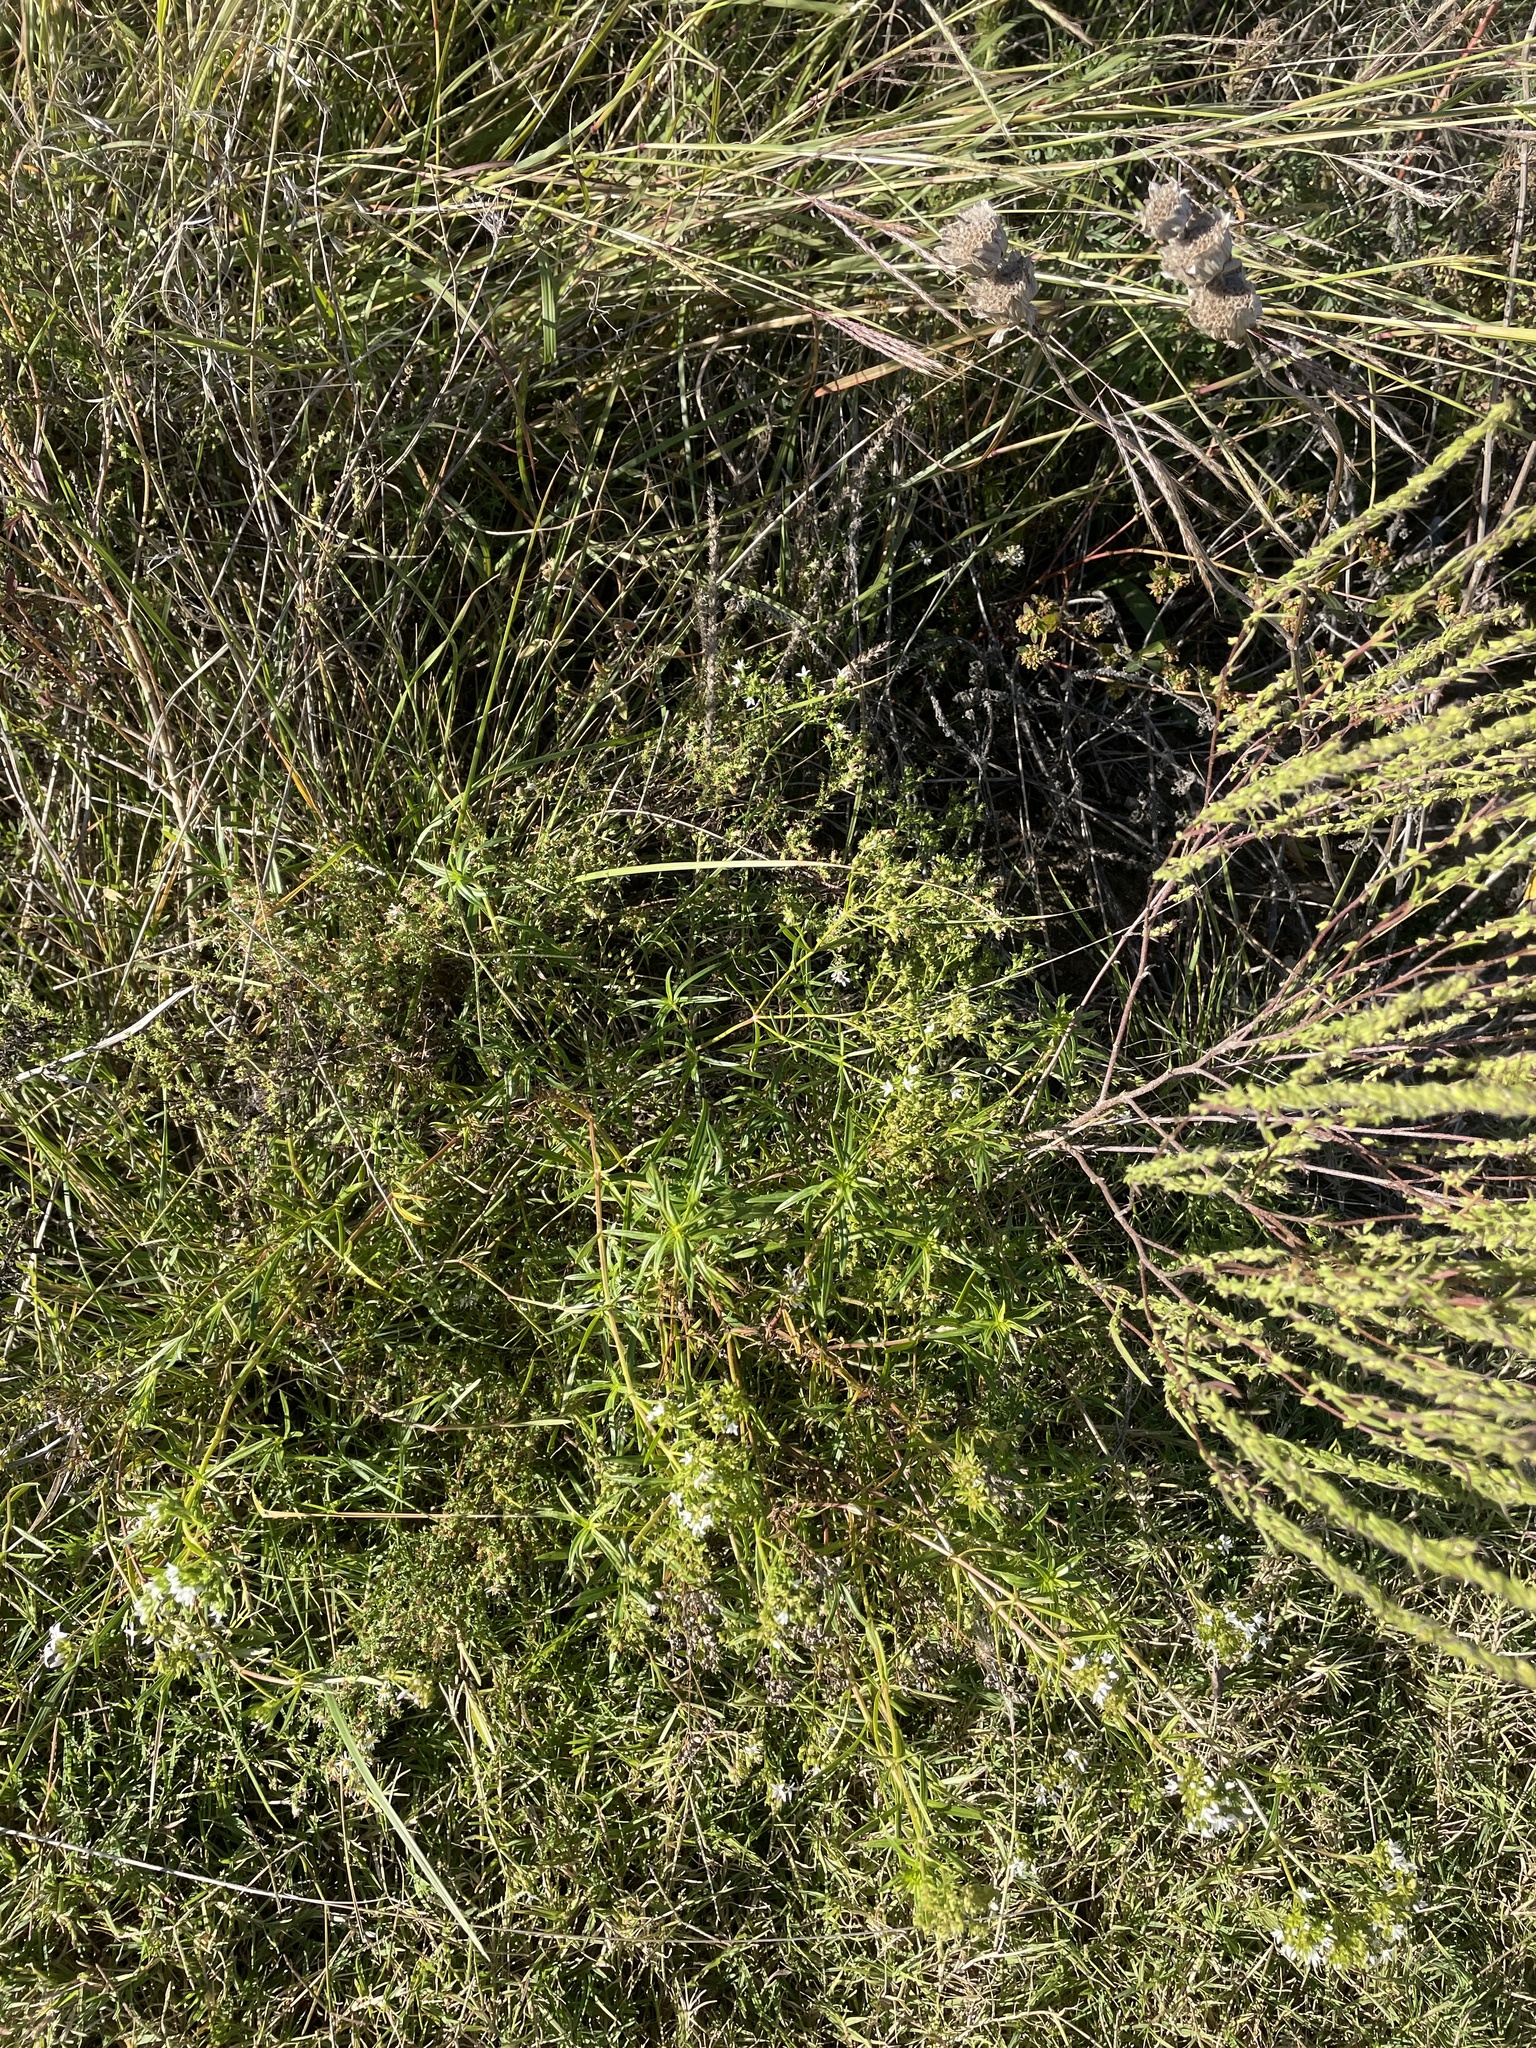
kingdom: Plantae
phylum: Tracheophyta
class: Magnoliopsida
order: Gentianales
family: Rubiaceae
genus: Stenaria
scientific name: Stenaria nigricans
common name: Diamondflowers
